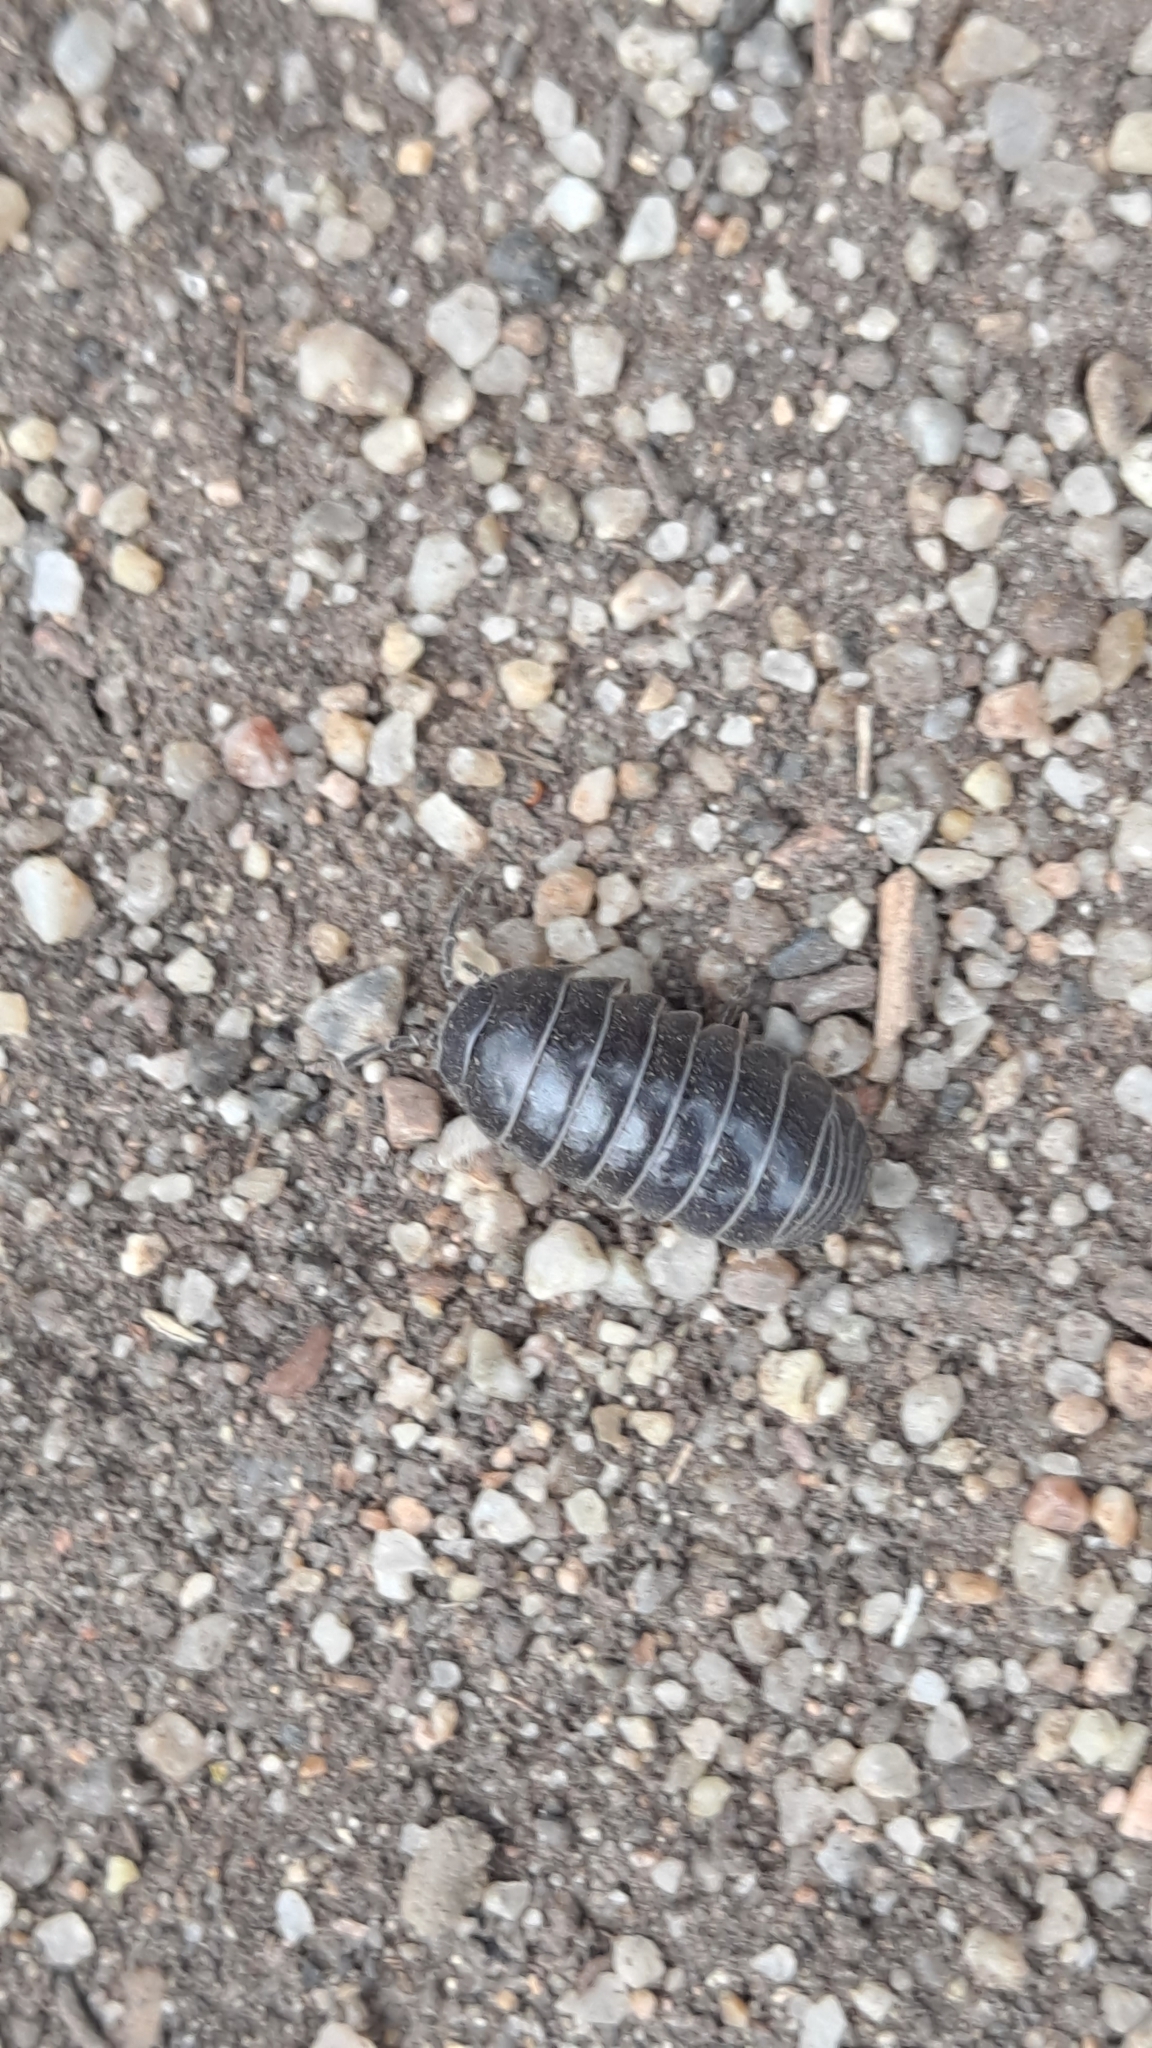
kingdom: Animalia
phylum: Arthropoda
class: Malacostraca
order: Isopoda
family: Armadillidiidae
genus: Armadillidium
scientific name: Armadillidium vulgare
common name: Common pill woodlouse
